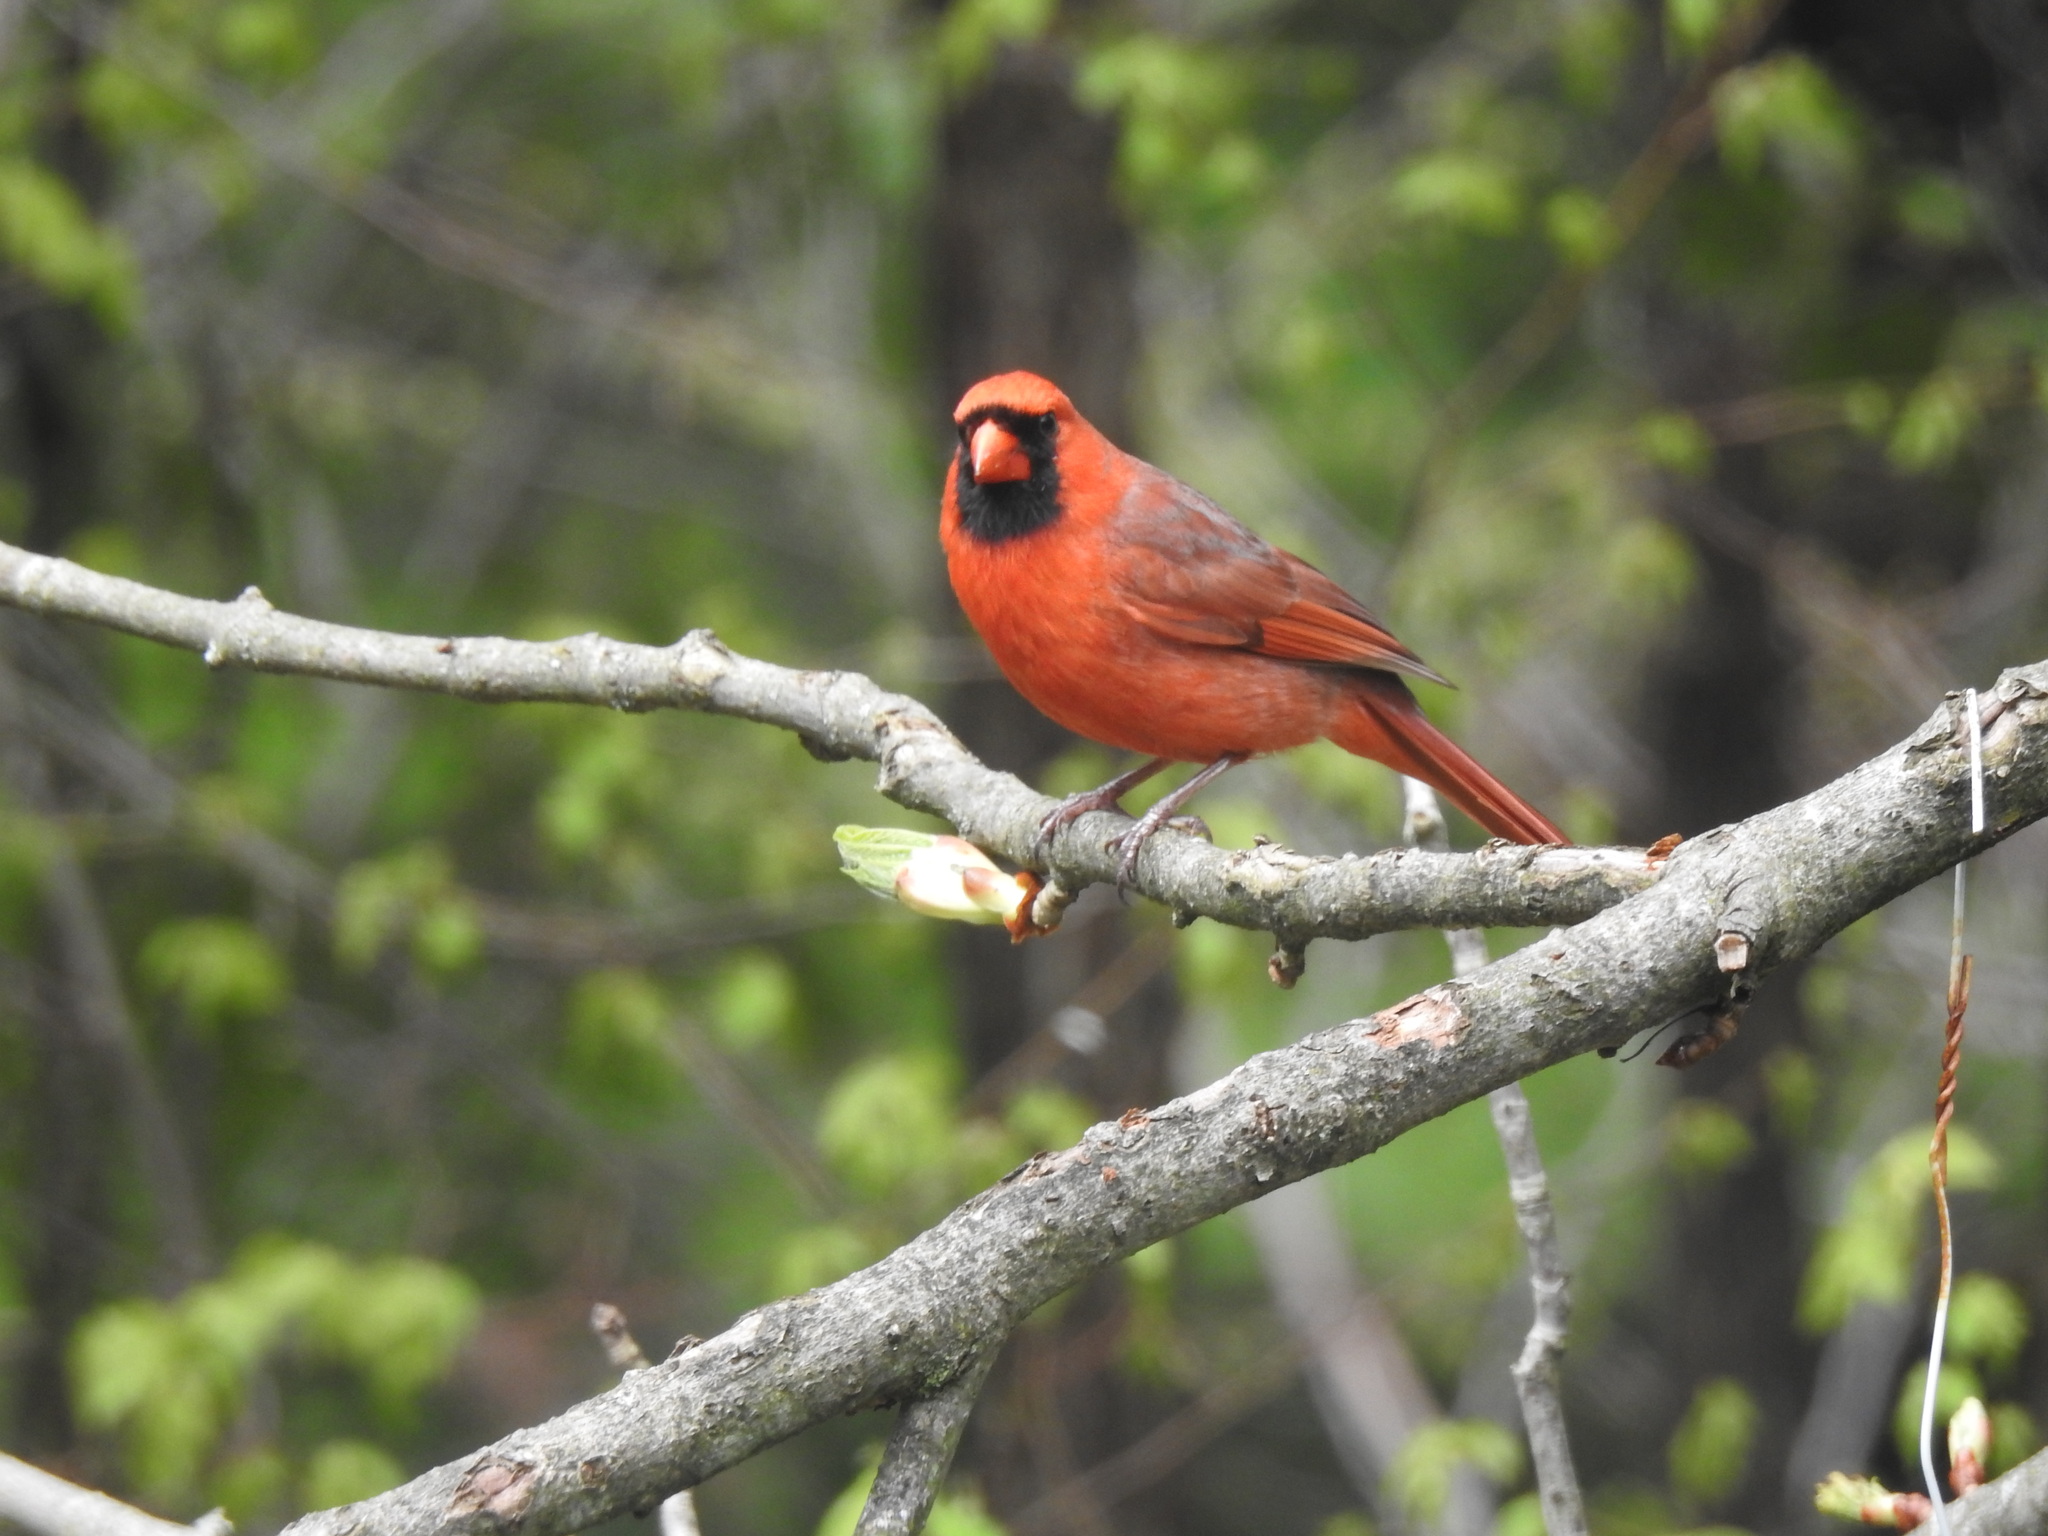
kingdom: Animalia
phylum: Chordata
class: Aves
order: Passeriformes
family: Cardinalidae
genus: Cardinalis
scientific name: Cardinalis cardinalis
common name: Northern cardinal
